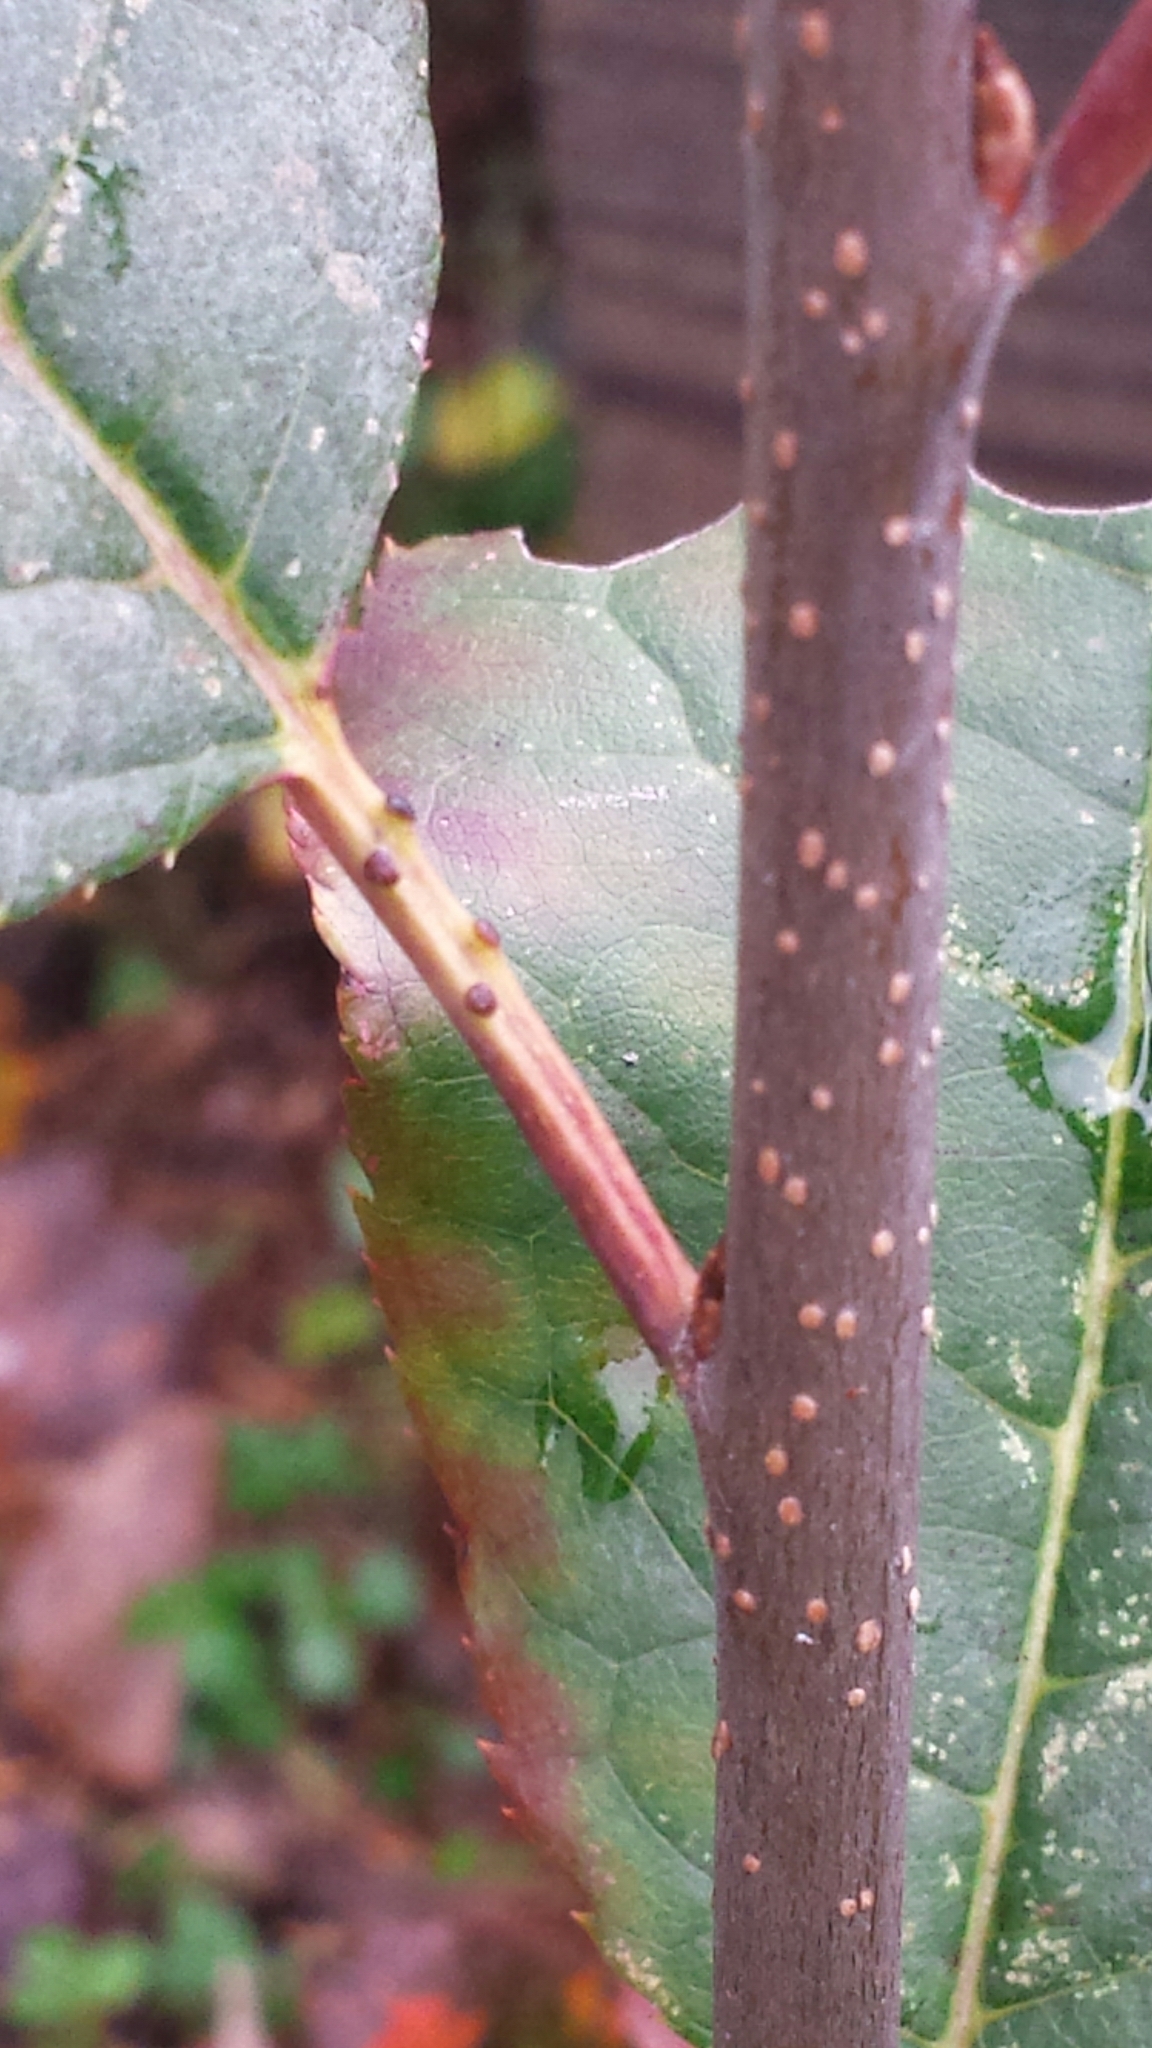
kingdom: Plantae
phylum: Tracheophyta
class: Magnoliopsida
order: Rosales
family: Rosaceae
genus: Prunus
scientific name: Prunus virginiana
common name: Chokecherry
